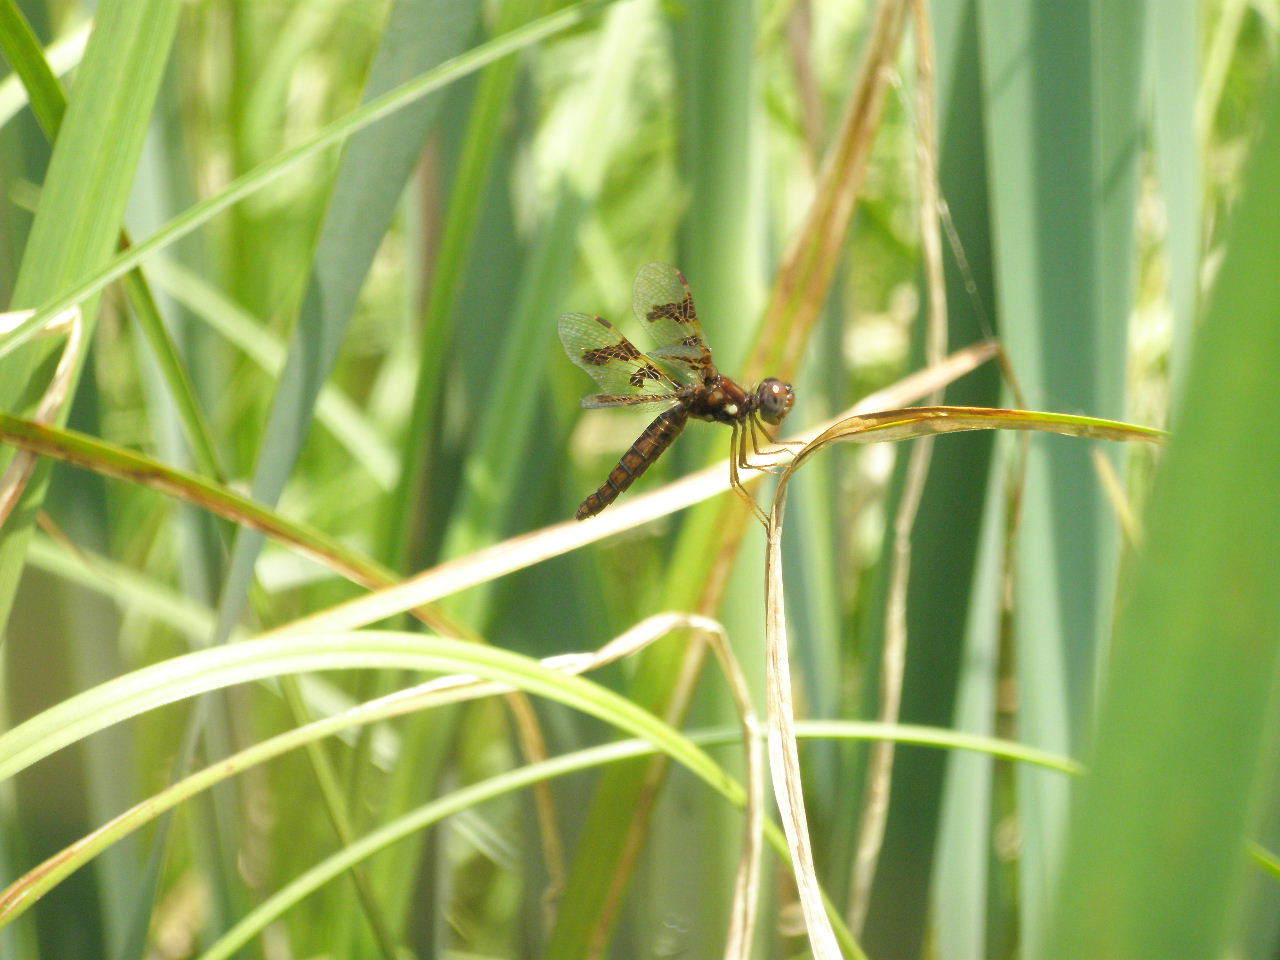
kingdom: Animalia
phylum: Arthropoda
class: Insecta
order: Odonata
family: Libellulidae
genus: Perithemis
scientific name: Perithemis tenera
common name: Eastern amberwing
